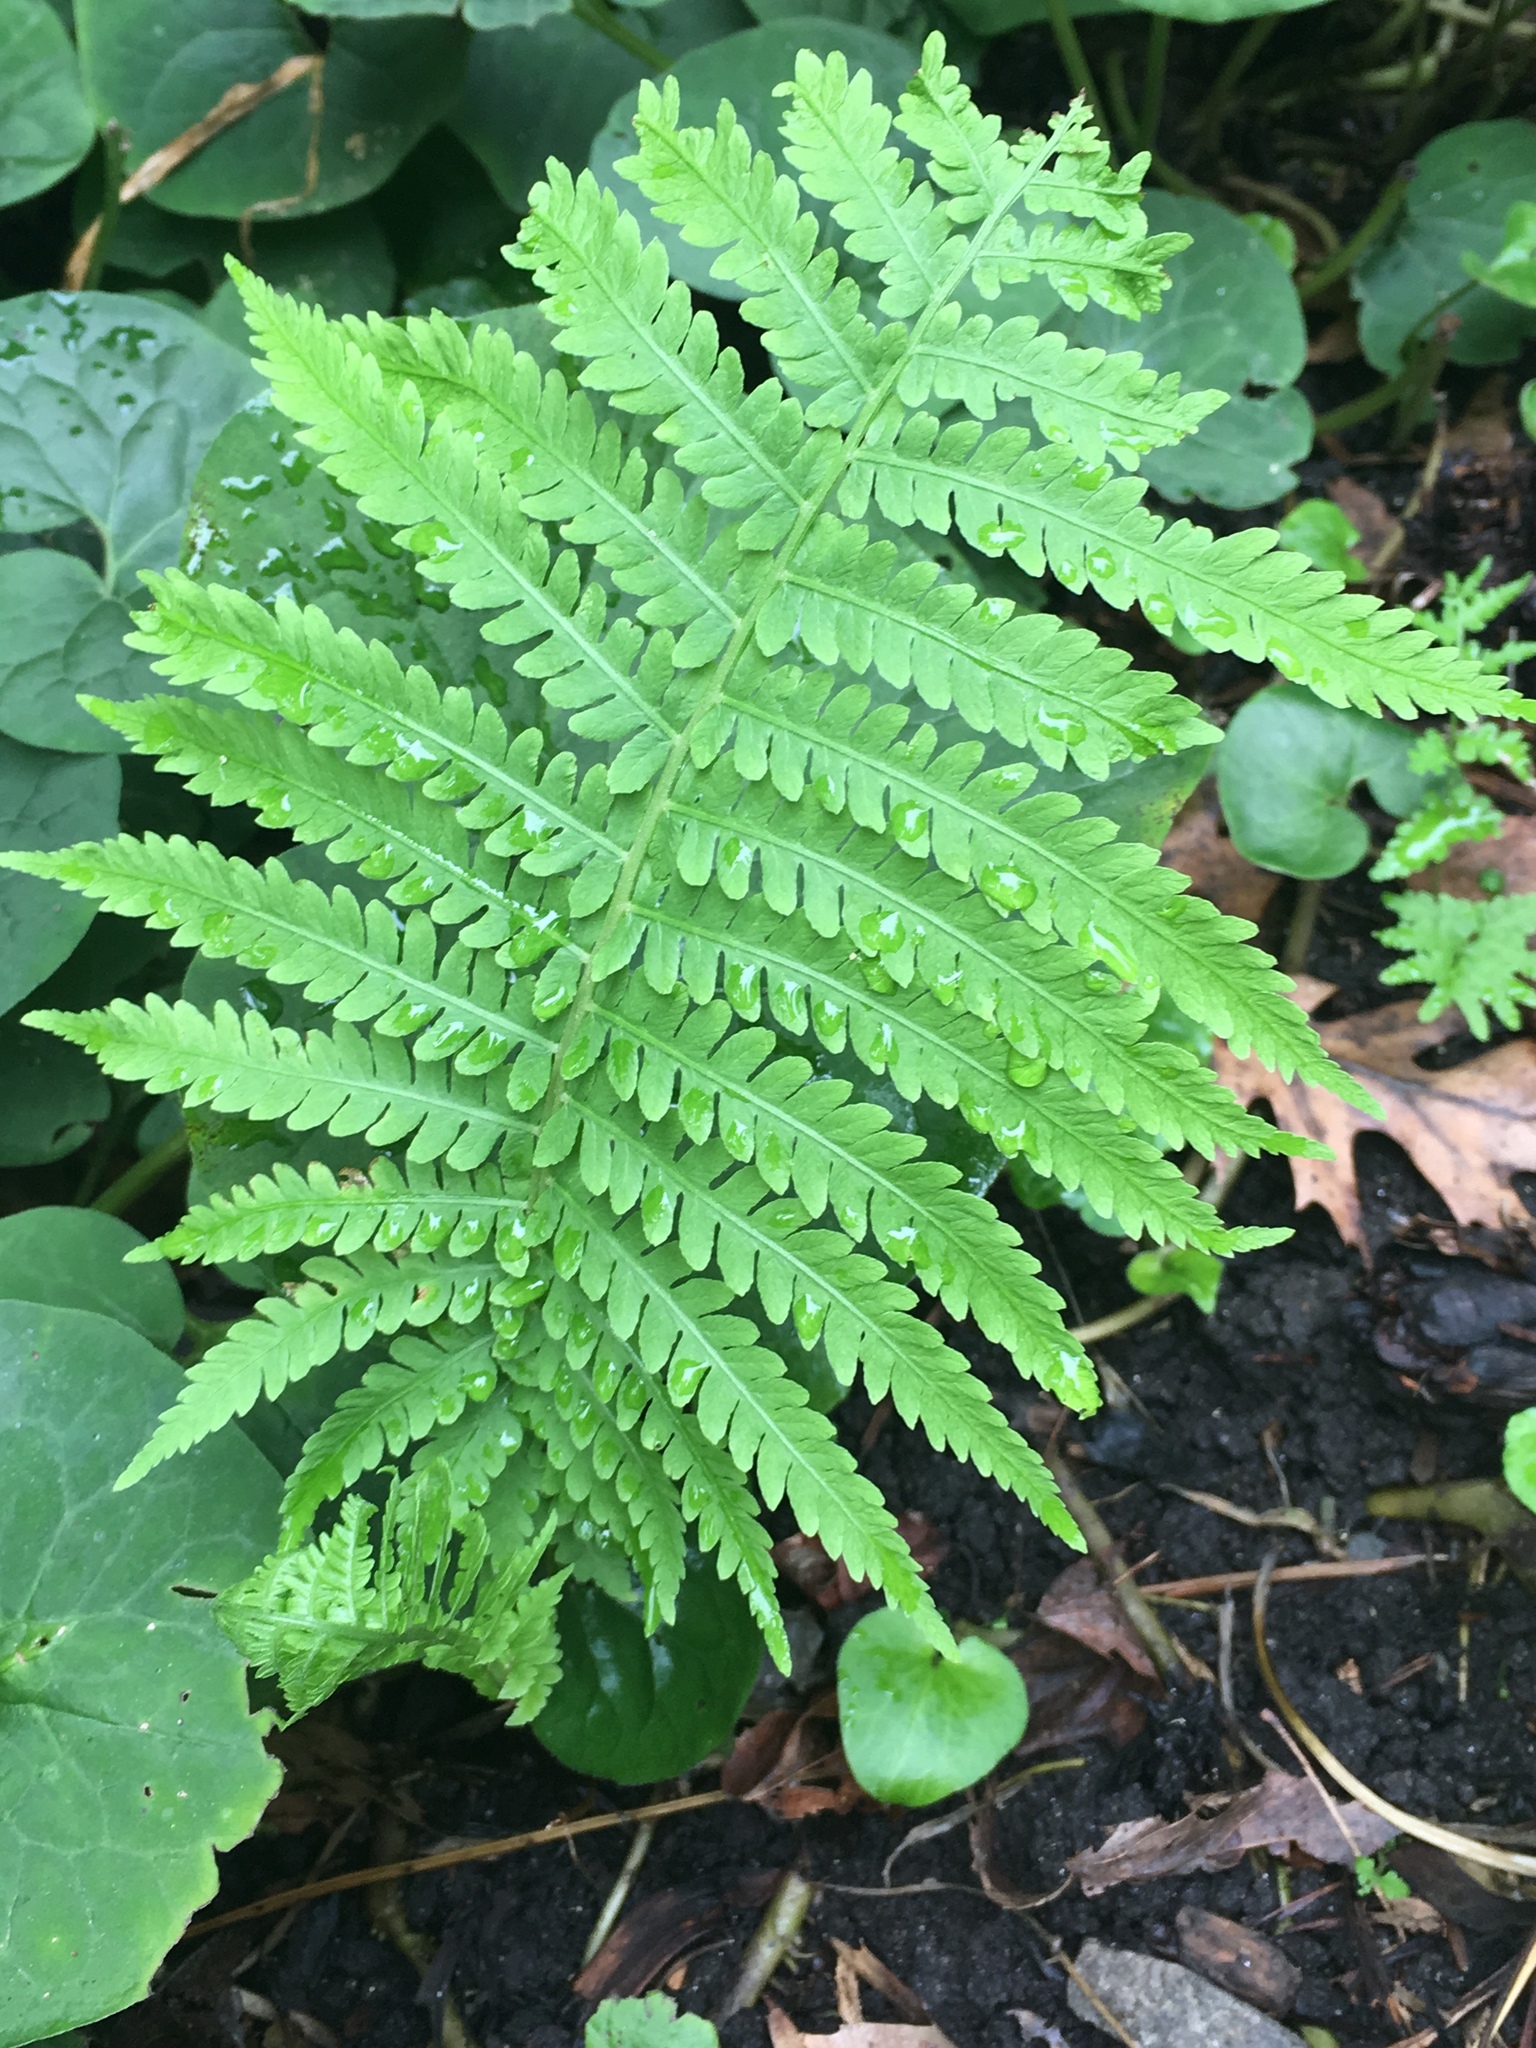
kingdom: Plantae
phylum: Tracheophyta
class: Polypodiopsida
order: Polypodiales
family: Onocleaceae
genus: Matteuccia
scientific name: Matteuccia struthiopteris
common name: Ostrich fern
